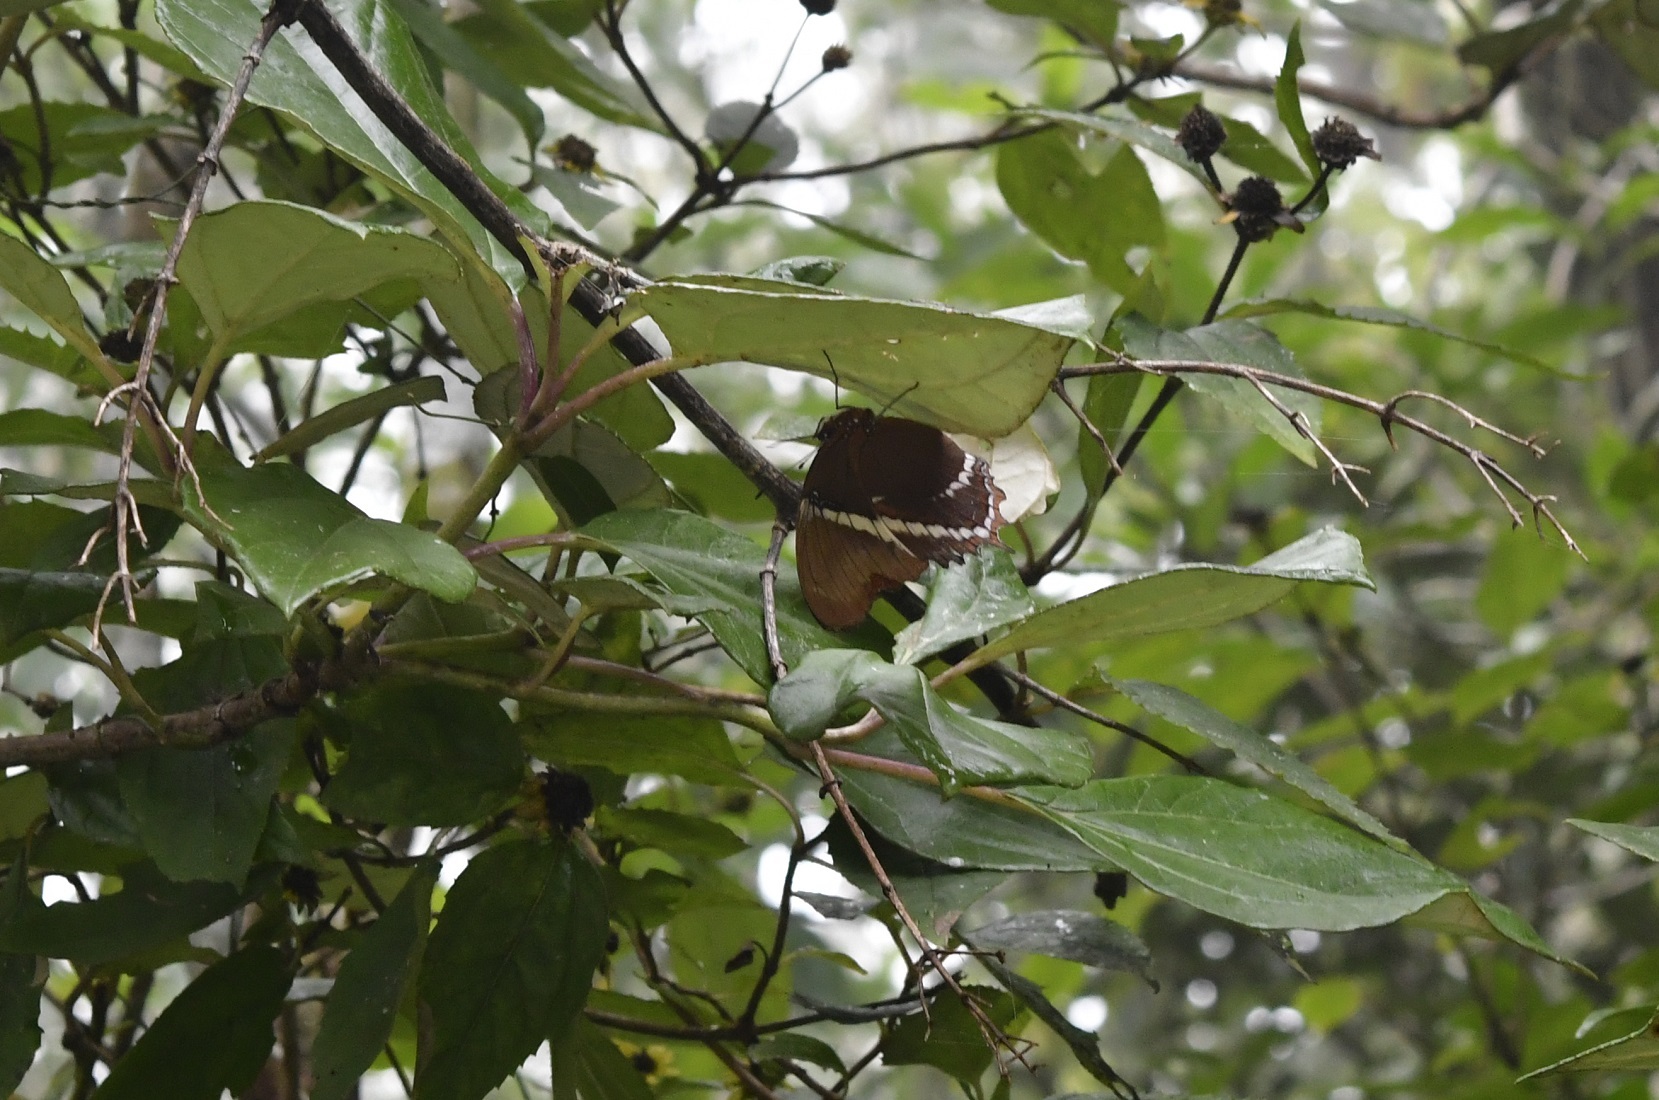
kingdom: Animalia
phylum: Arthropoda
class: Insecta
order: Lepidoptera
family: Nymphalidae
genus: Siproeta
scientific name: Siproeta epaphus
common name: Rusty-tipped page
